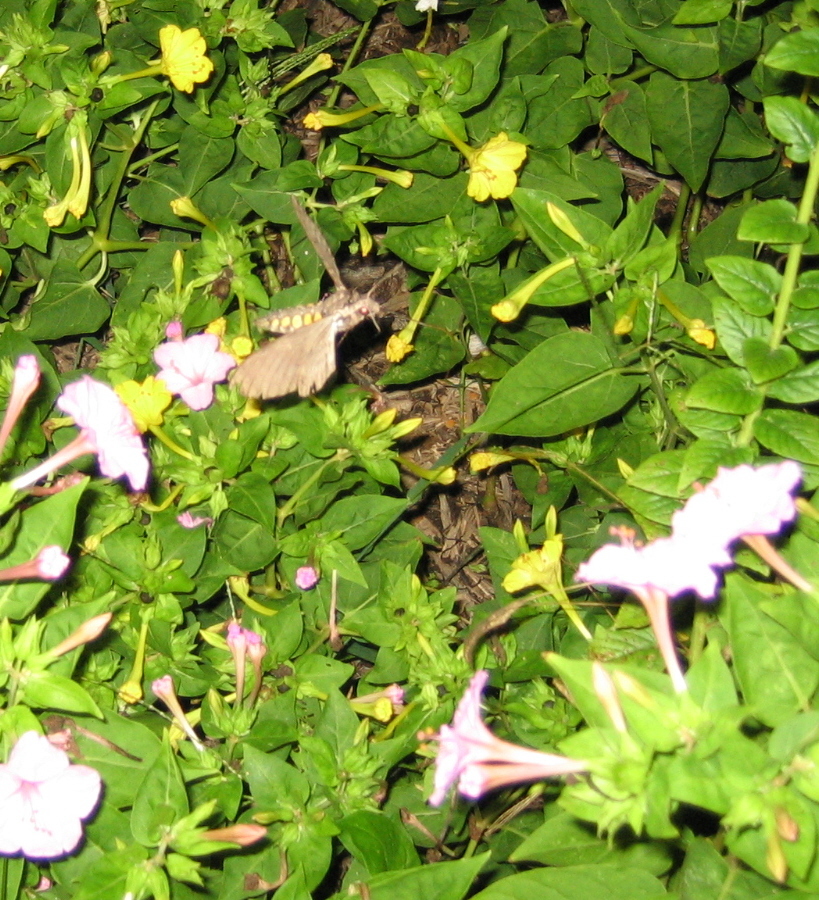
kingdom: Animalia
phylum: Arthropoda
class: Insecta
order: Lepidoptera
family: Sphingidae
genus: Manduca
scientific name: Manduca sexta
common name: Carolina sphinx
